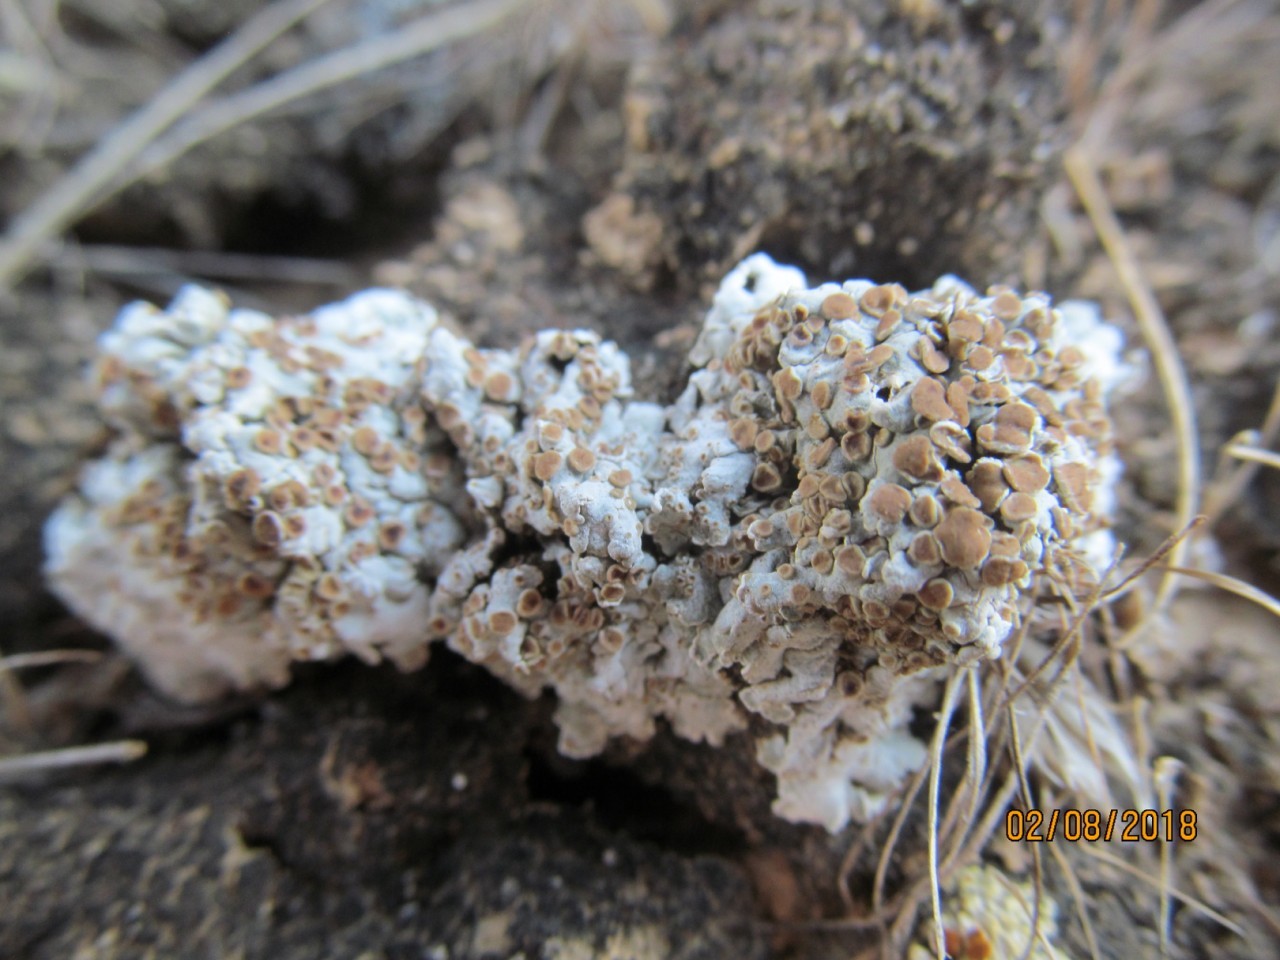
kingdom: Fungi
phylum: Ascomycota
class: Lecanoromycetes
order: Lecanorales
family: Stereocaulaceae
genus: Squamarina
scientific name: Squamarina lentigera
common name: Scaly breck-lichen
